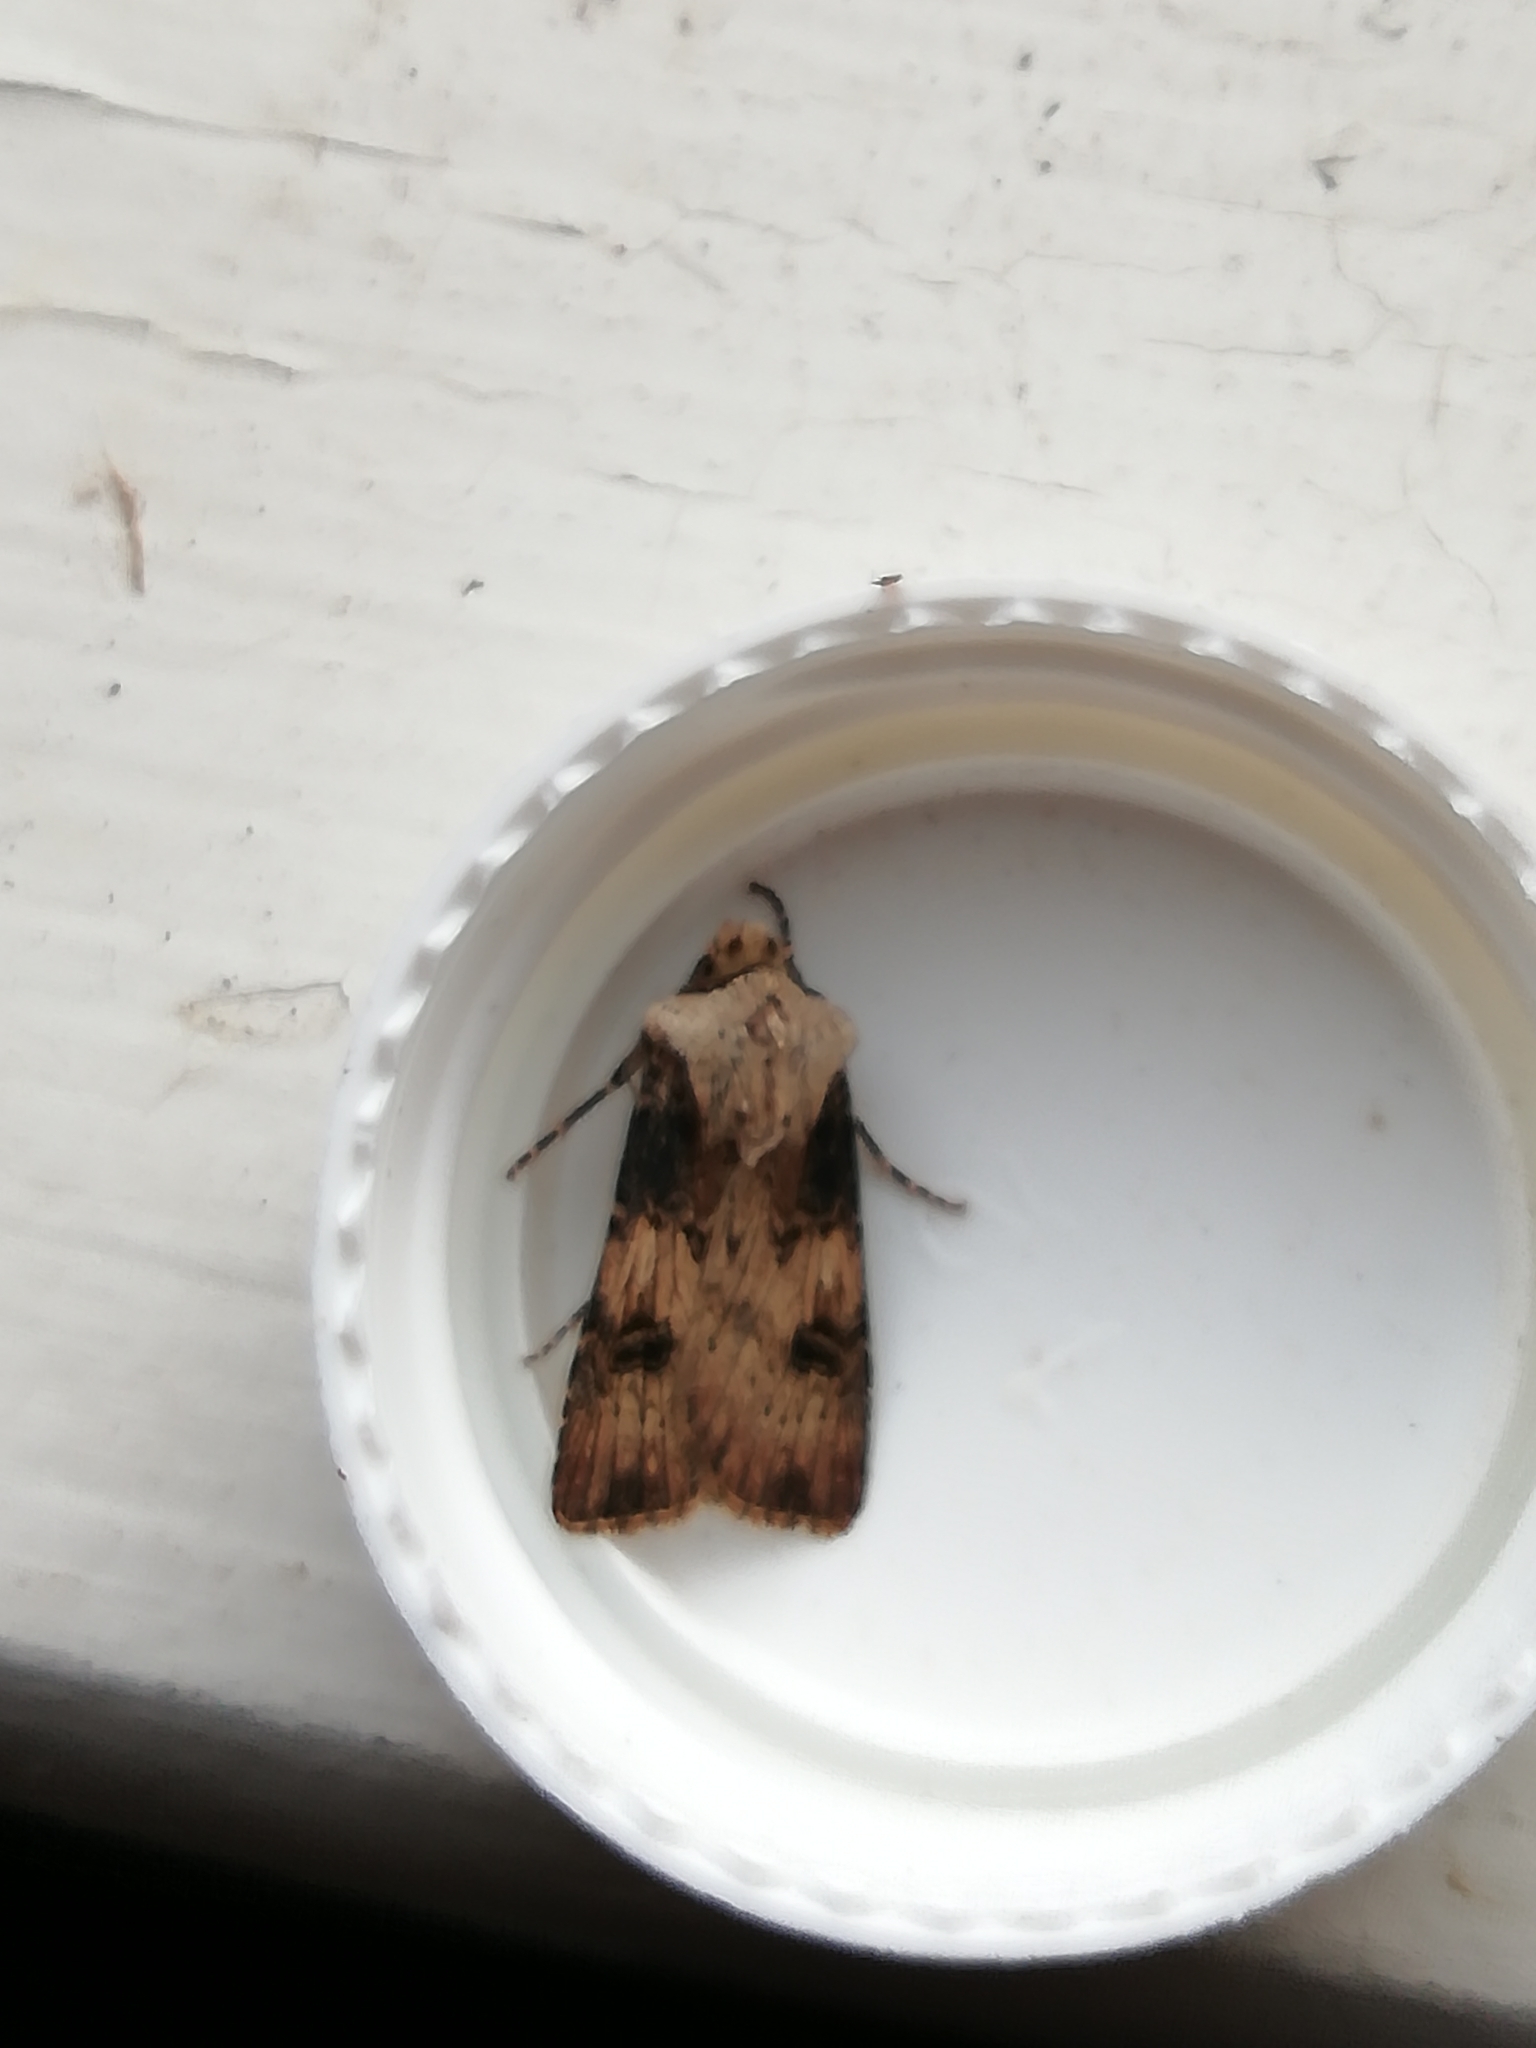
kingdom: Animalia
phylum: Arthropoda
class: Insecta
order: Lepidoptera
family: Noctuidae
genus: Agrotis
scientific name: Agrotis puta
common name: Shuttle-shaped dart
